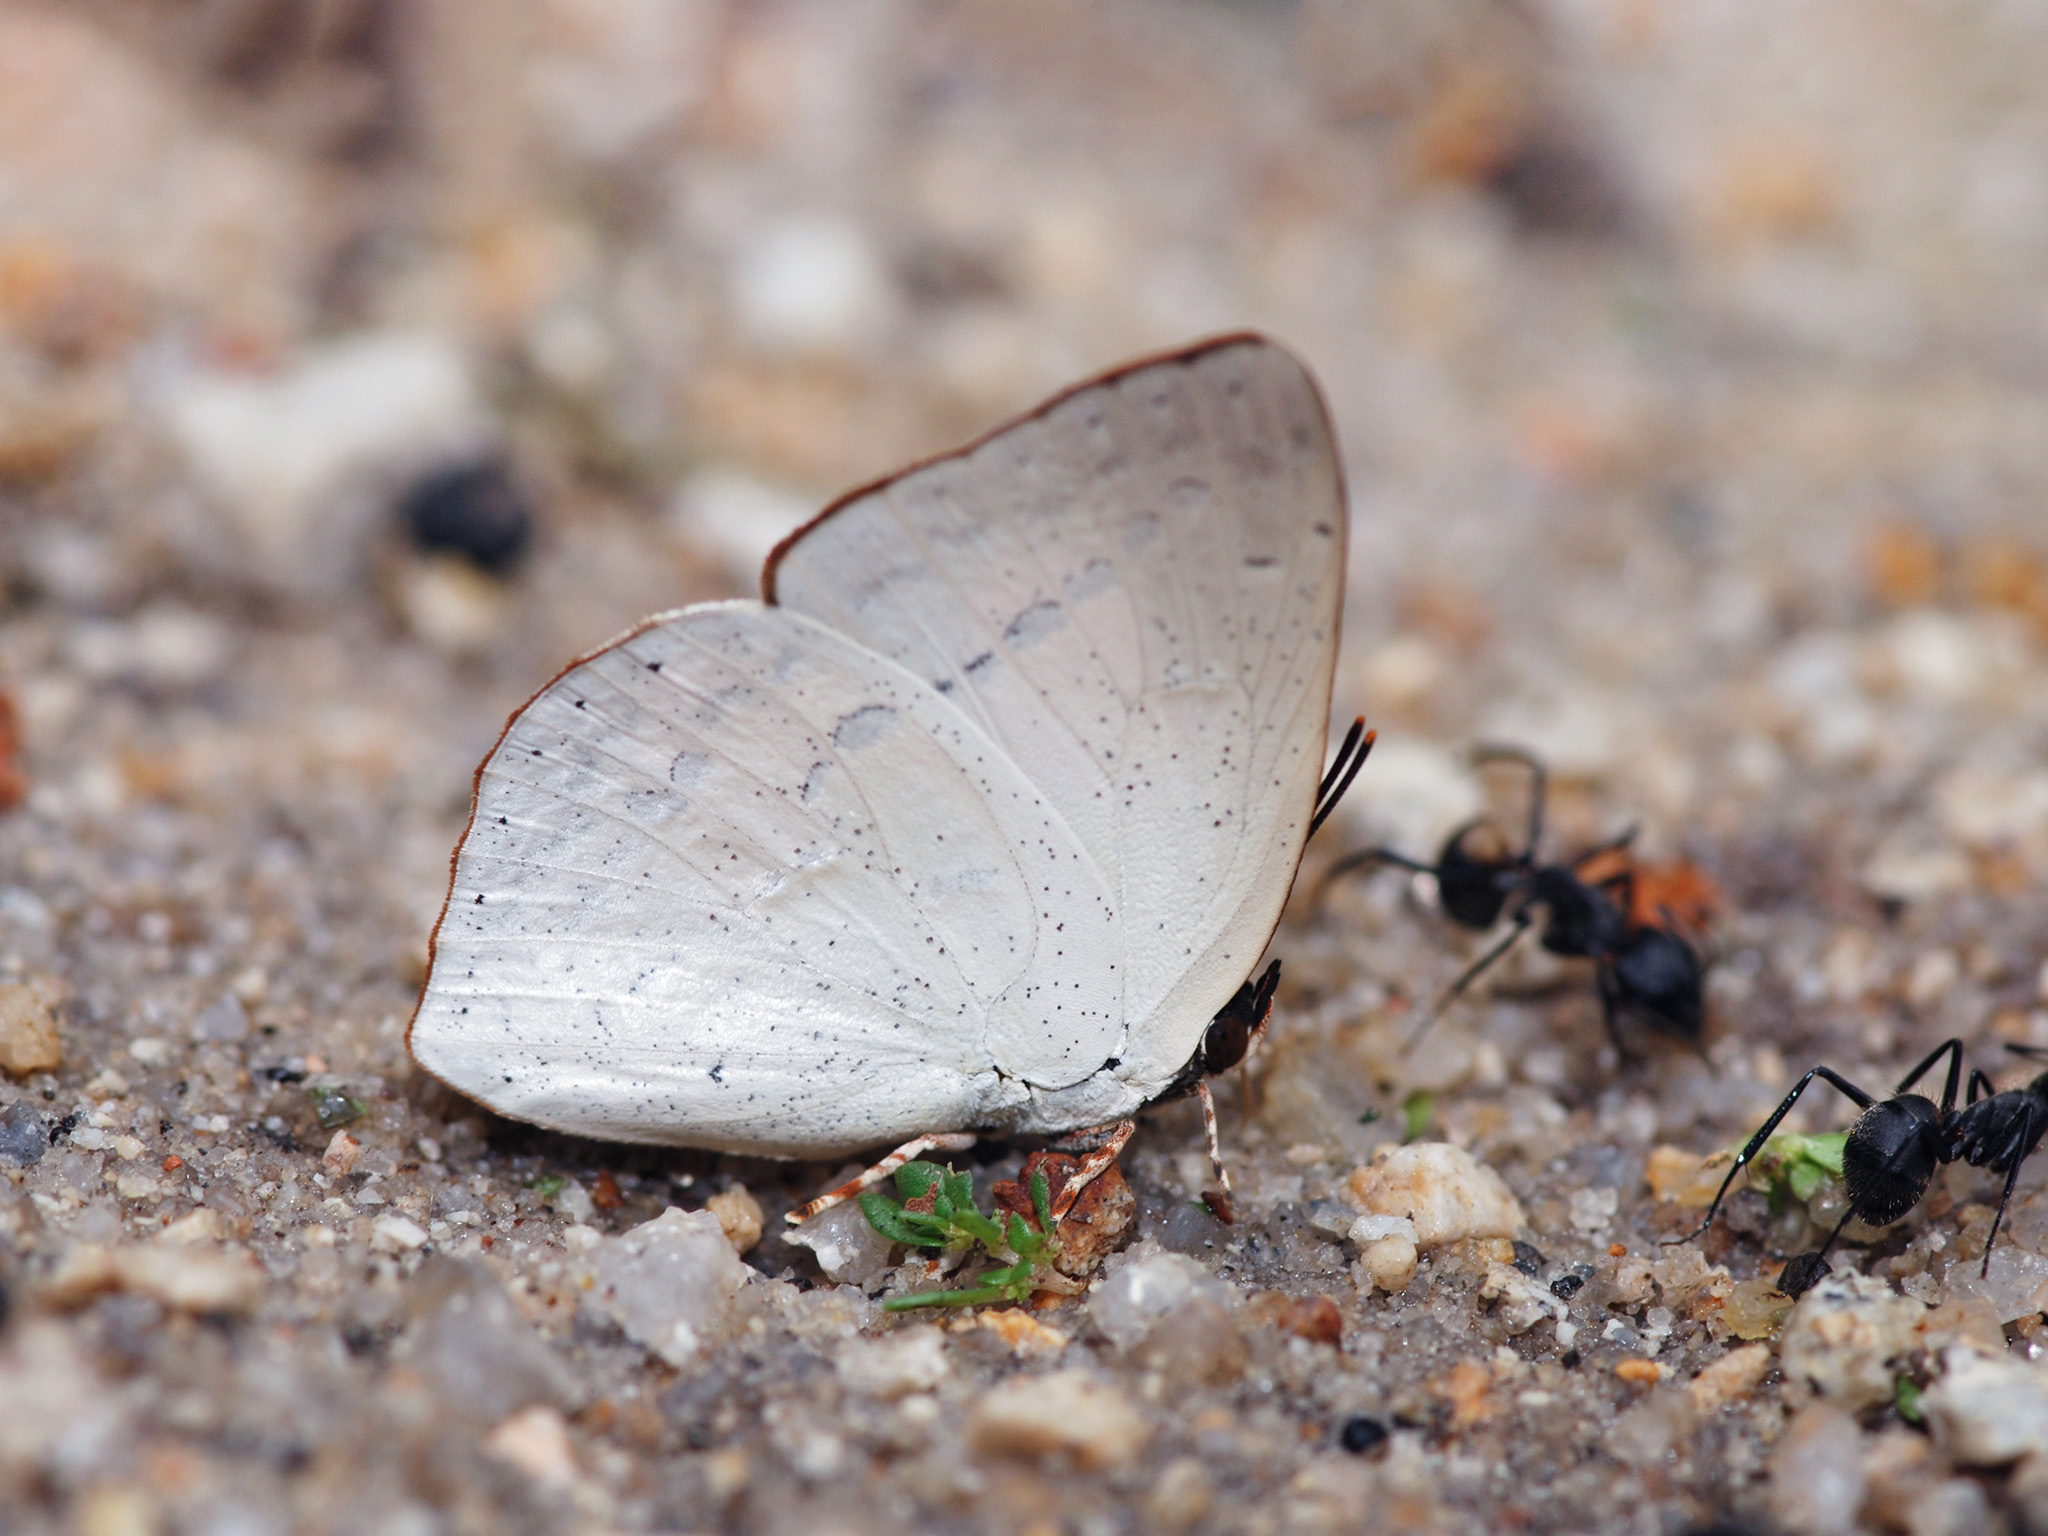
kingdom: Animalia
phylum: Arthropoda
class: Insecta
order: Lepidoptera
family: Lycaenidae
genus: Curetis
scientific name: Curetis bulis
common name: Bright sunbeam
